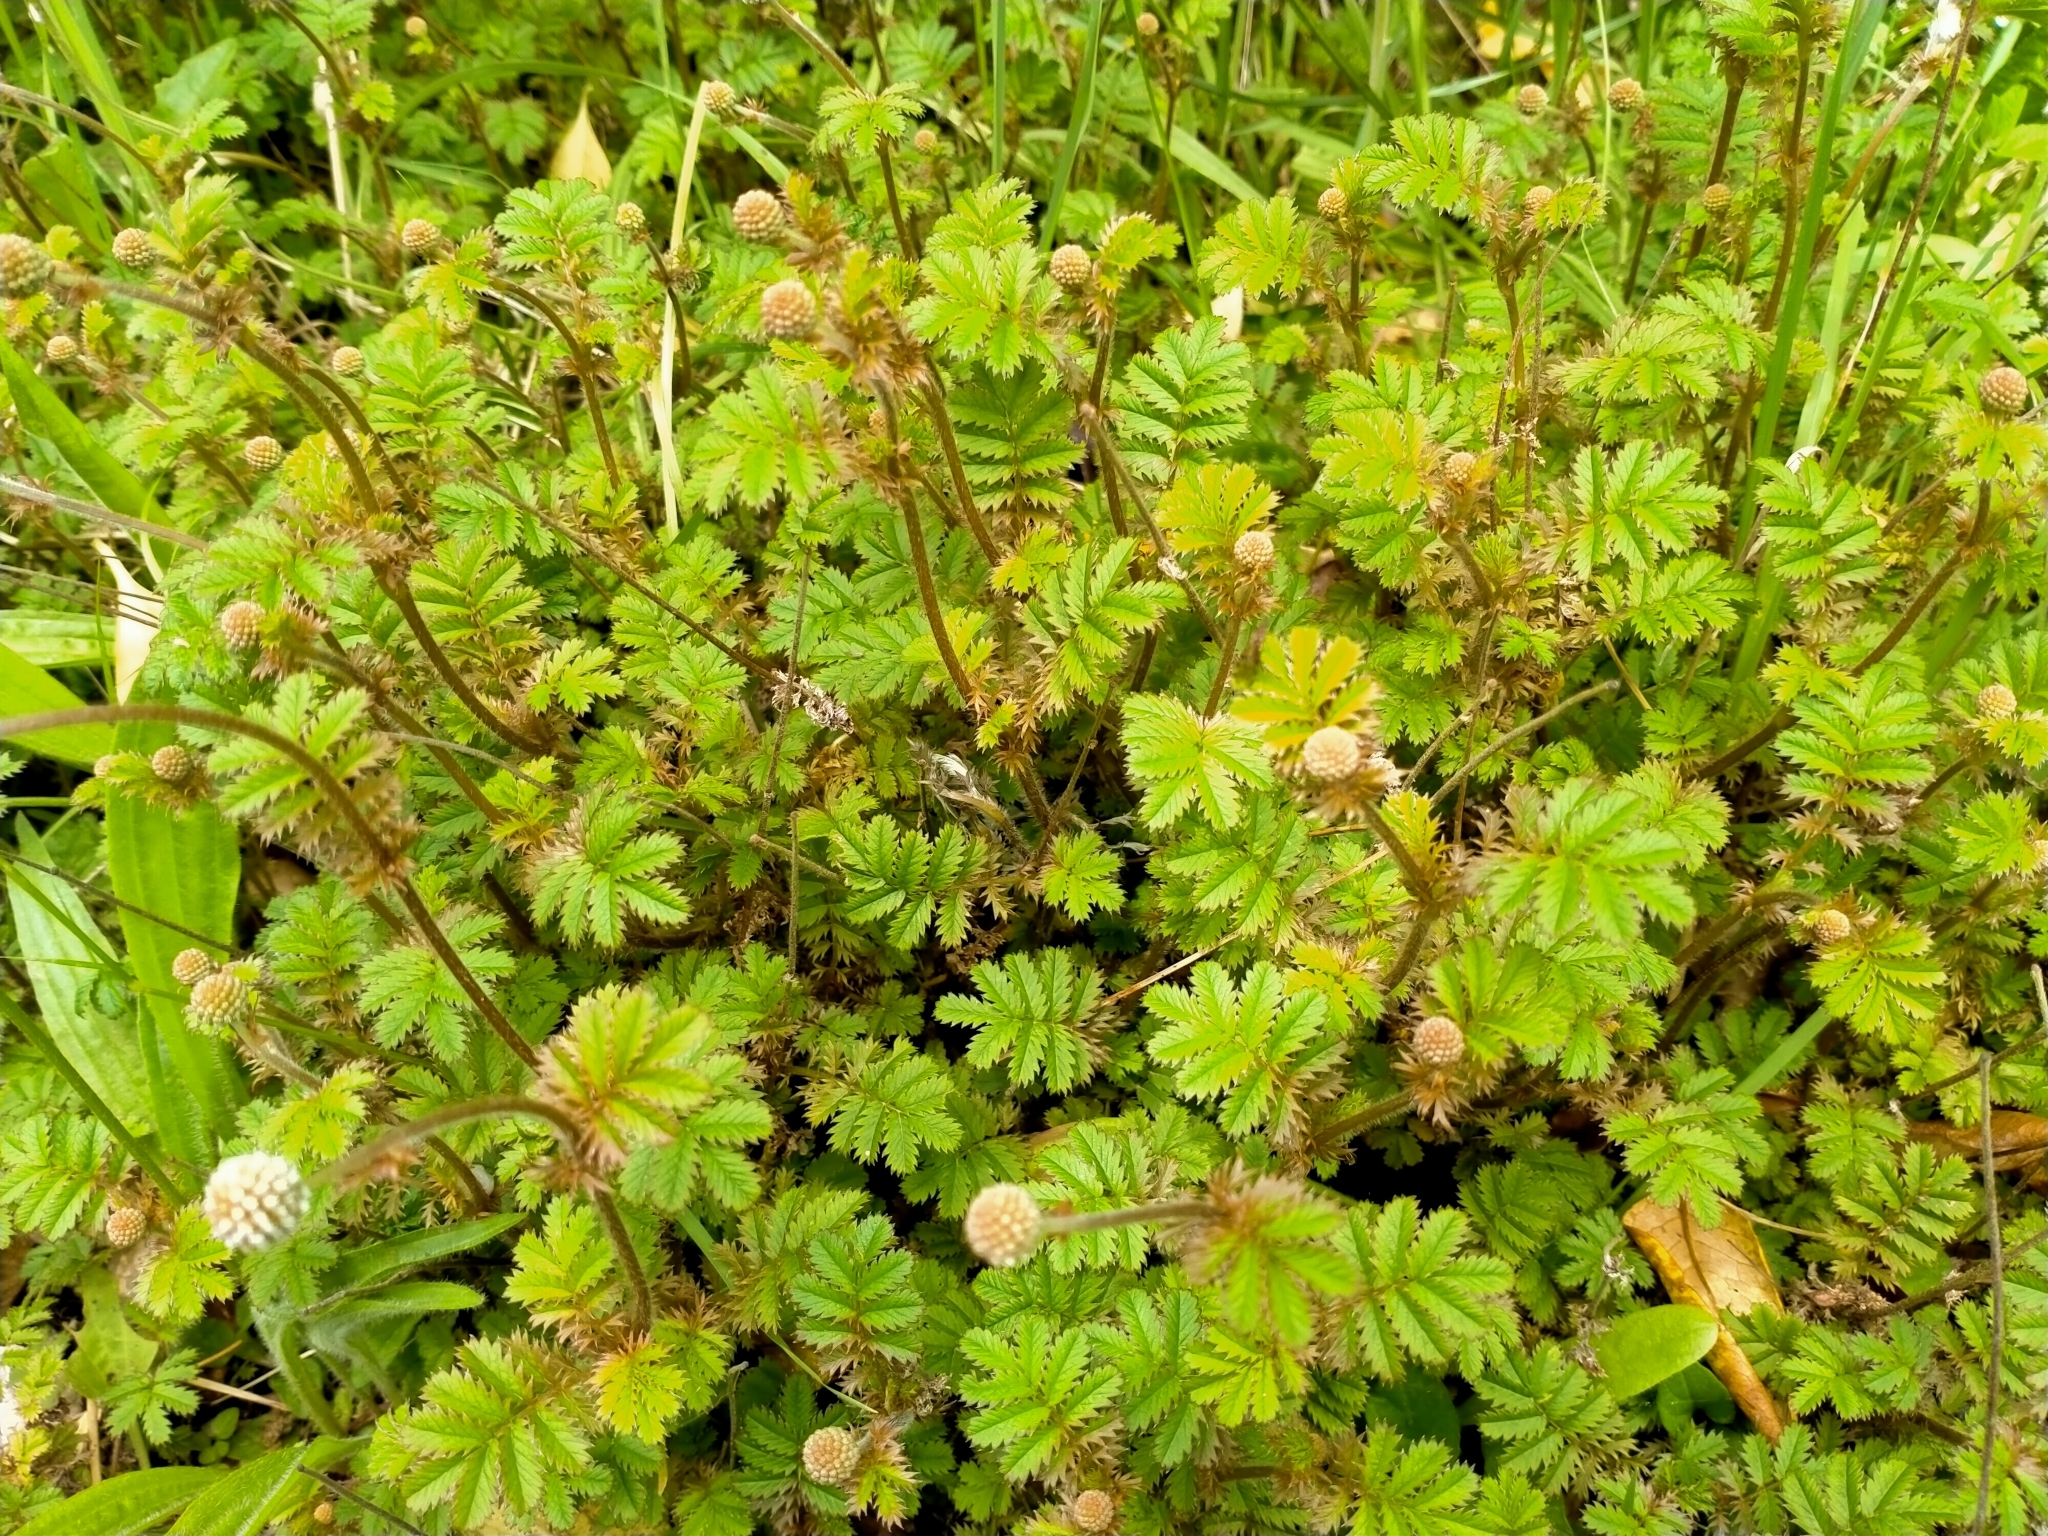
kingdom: Plantae
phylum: Tracheophyta
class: Magnoliopsida
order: Rosales
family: Rosaceae
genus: Acaena
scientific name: Acaena anserinifolia
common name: Bronze pirri-pirri-bur
